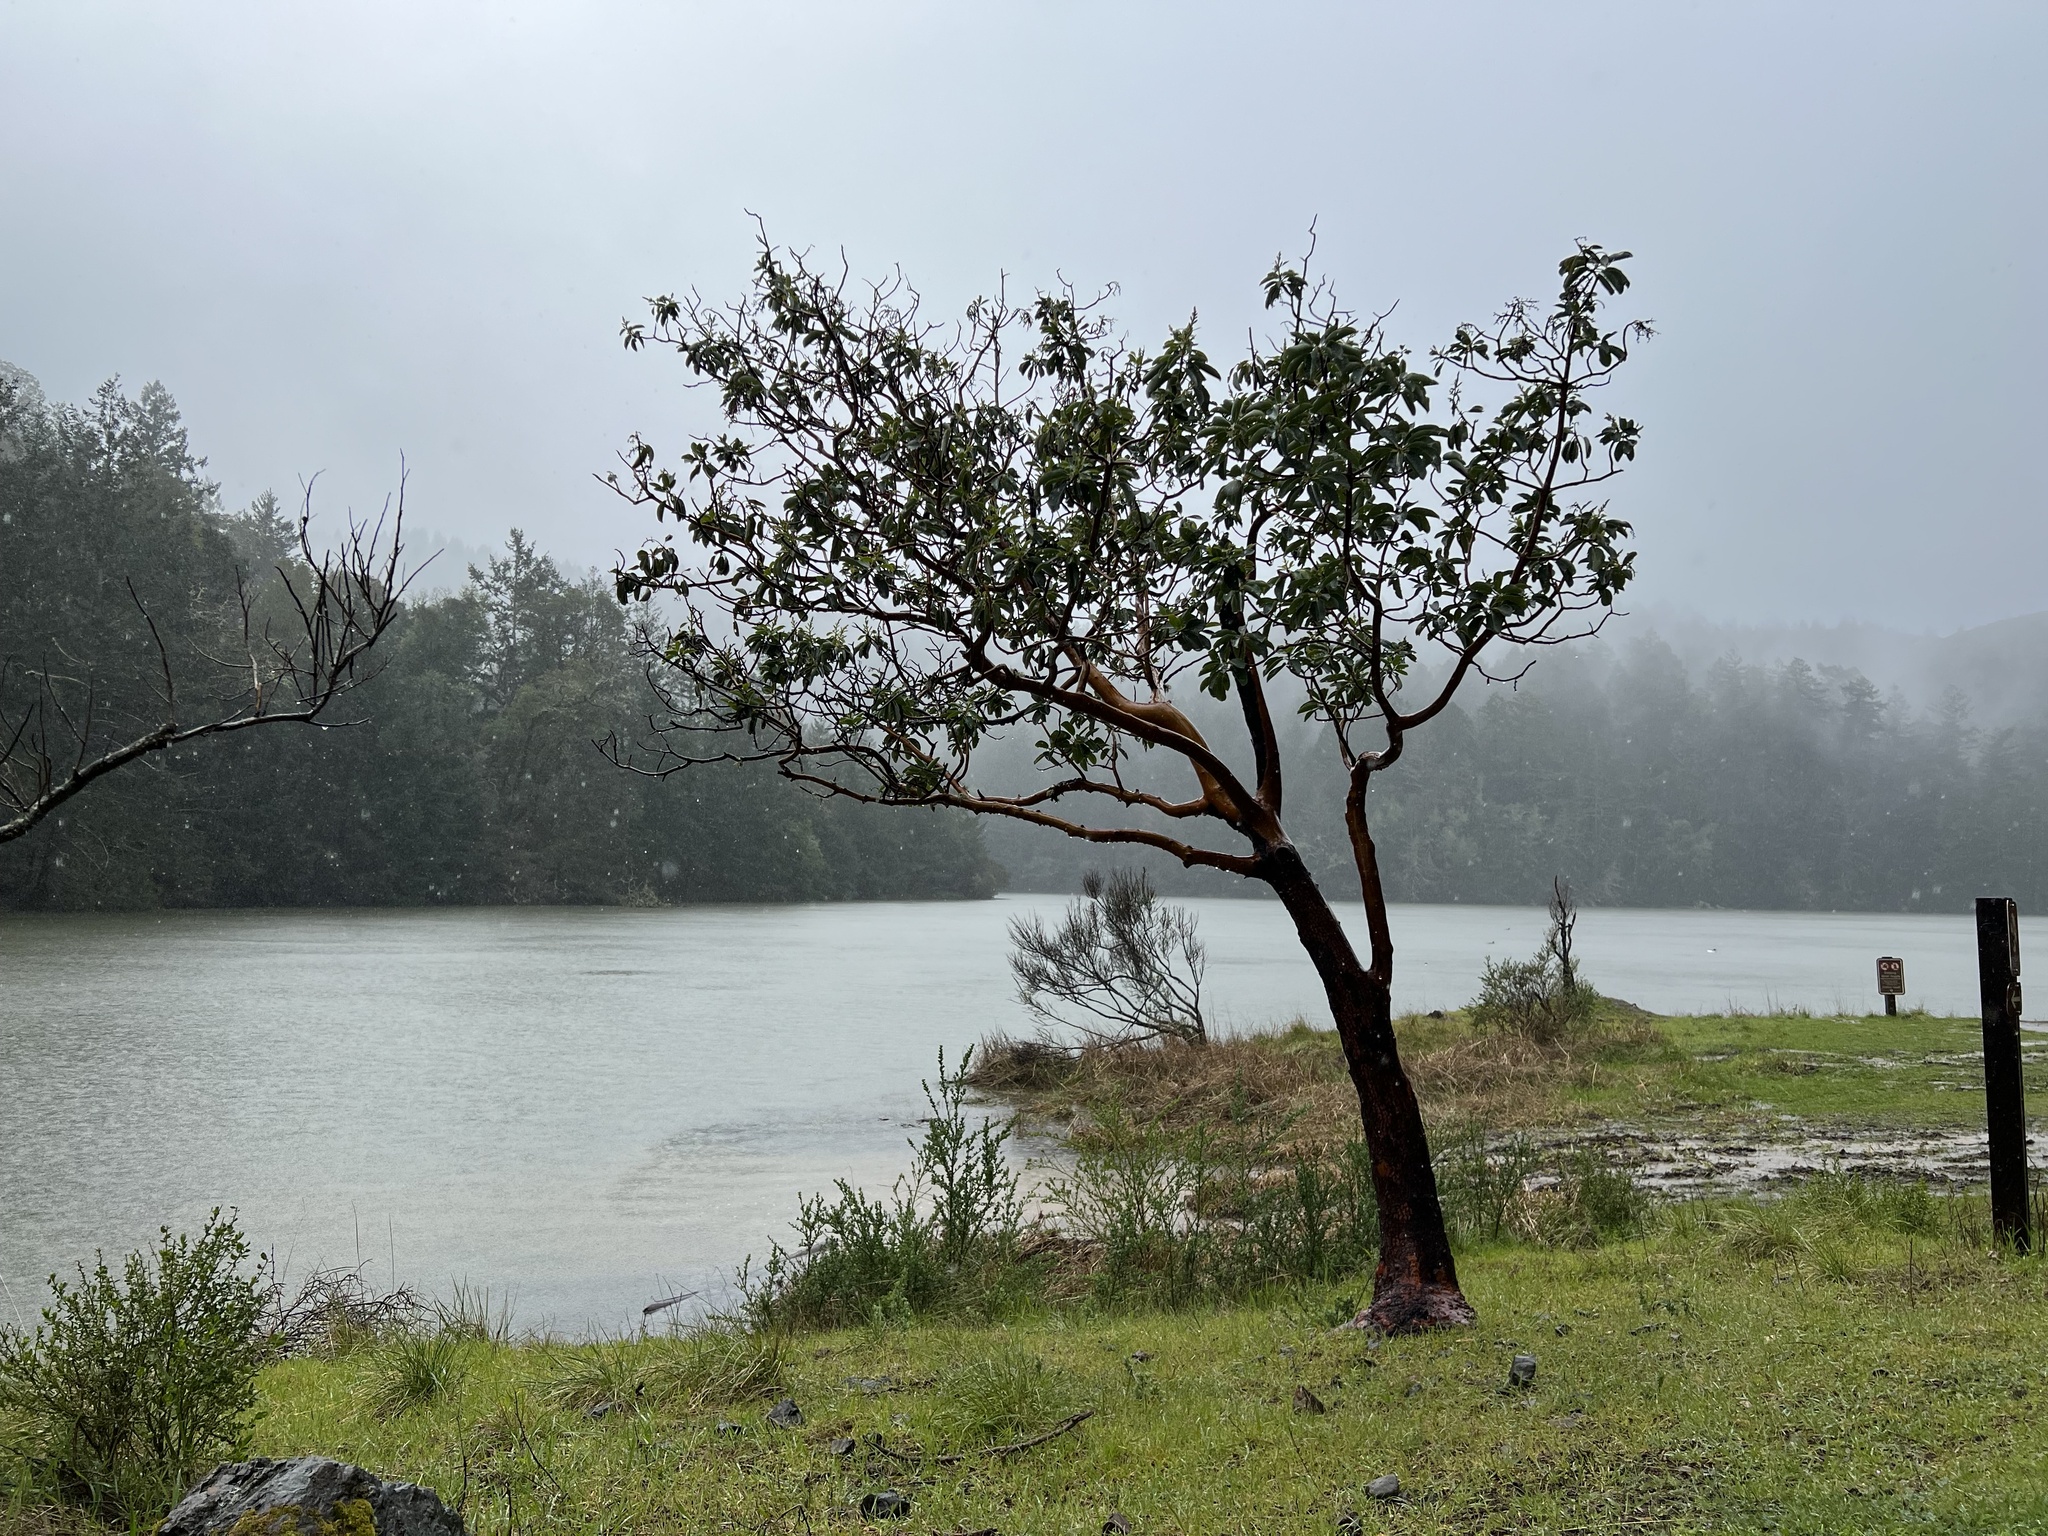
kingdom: Plantae
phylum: Tracheophyta
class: Magnoliopsida
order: Ericales
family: Ericaceae
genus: Arbutus
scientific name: Arbutus menziesii
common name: Pacific madrone
